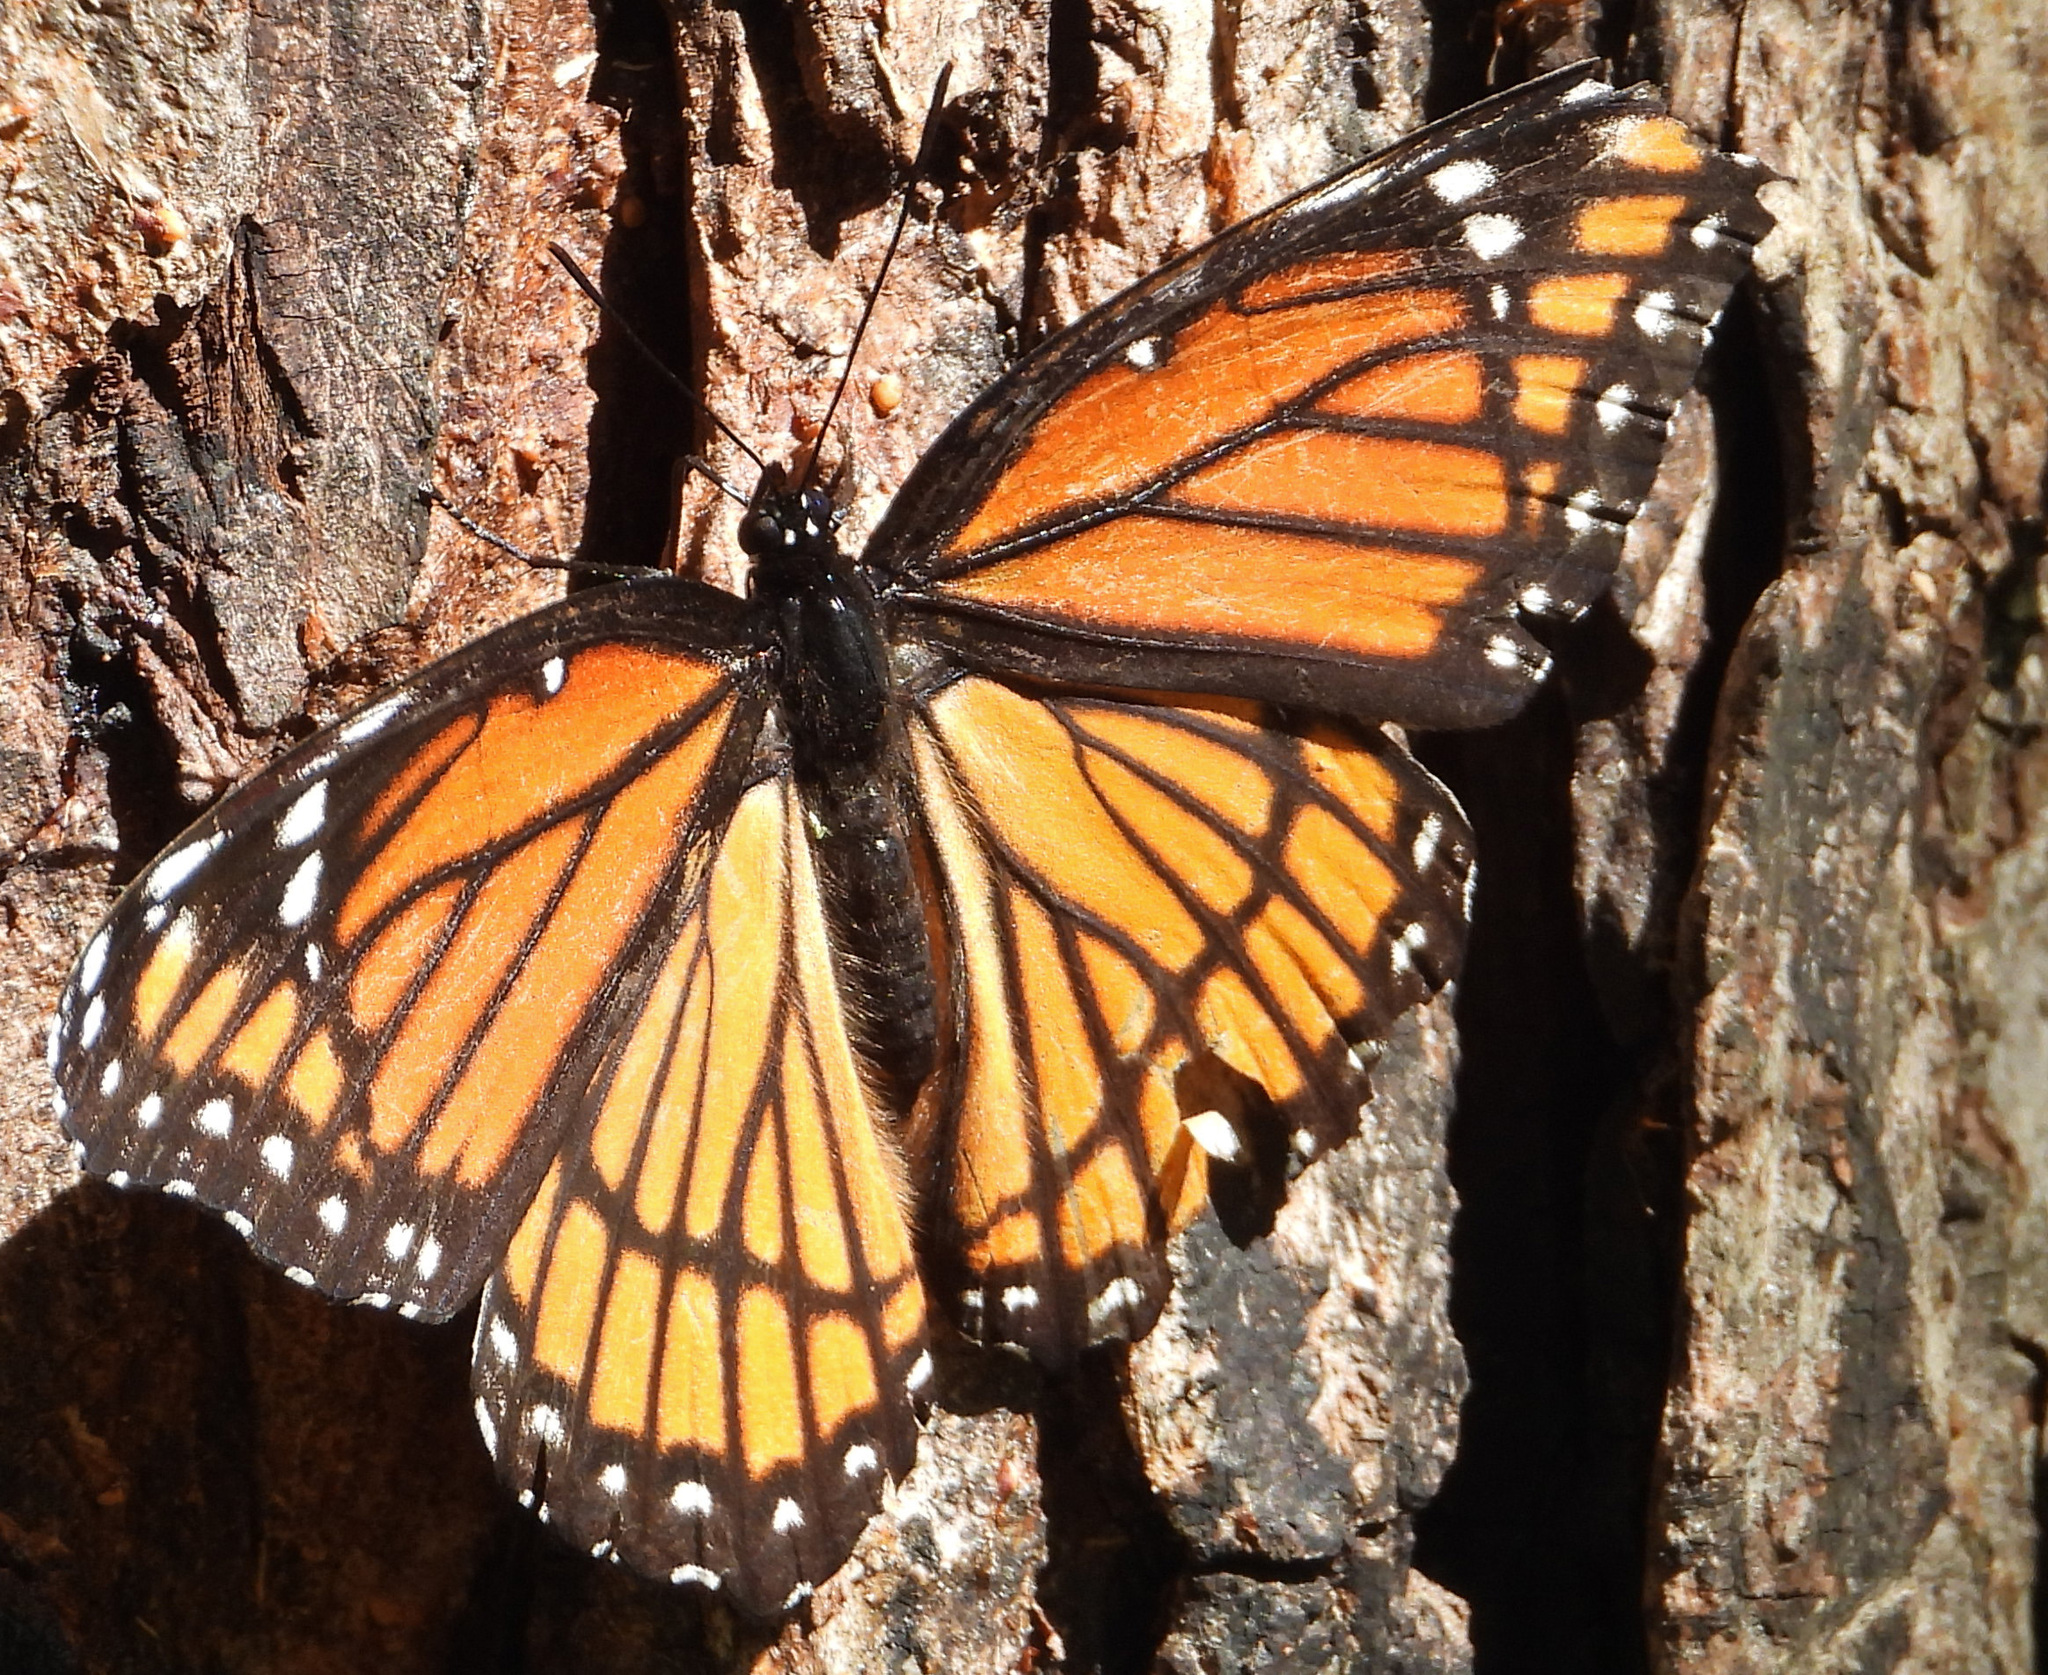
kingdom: Animalia
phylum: Arthropoda
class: Insecta
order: Lepidoptera
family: Nymphalidae
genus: Limenitis
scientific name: Limenitis archippus
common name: Viceroy
